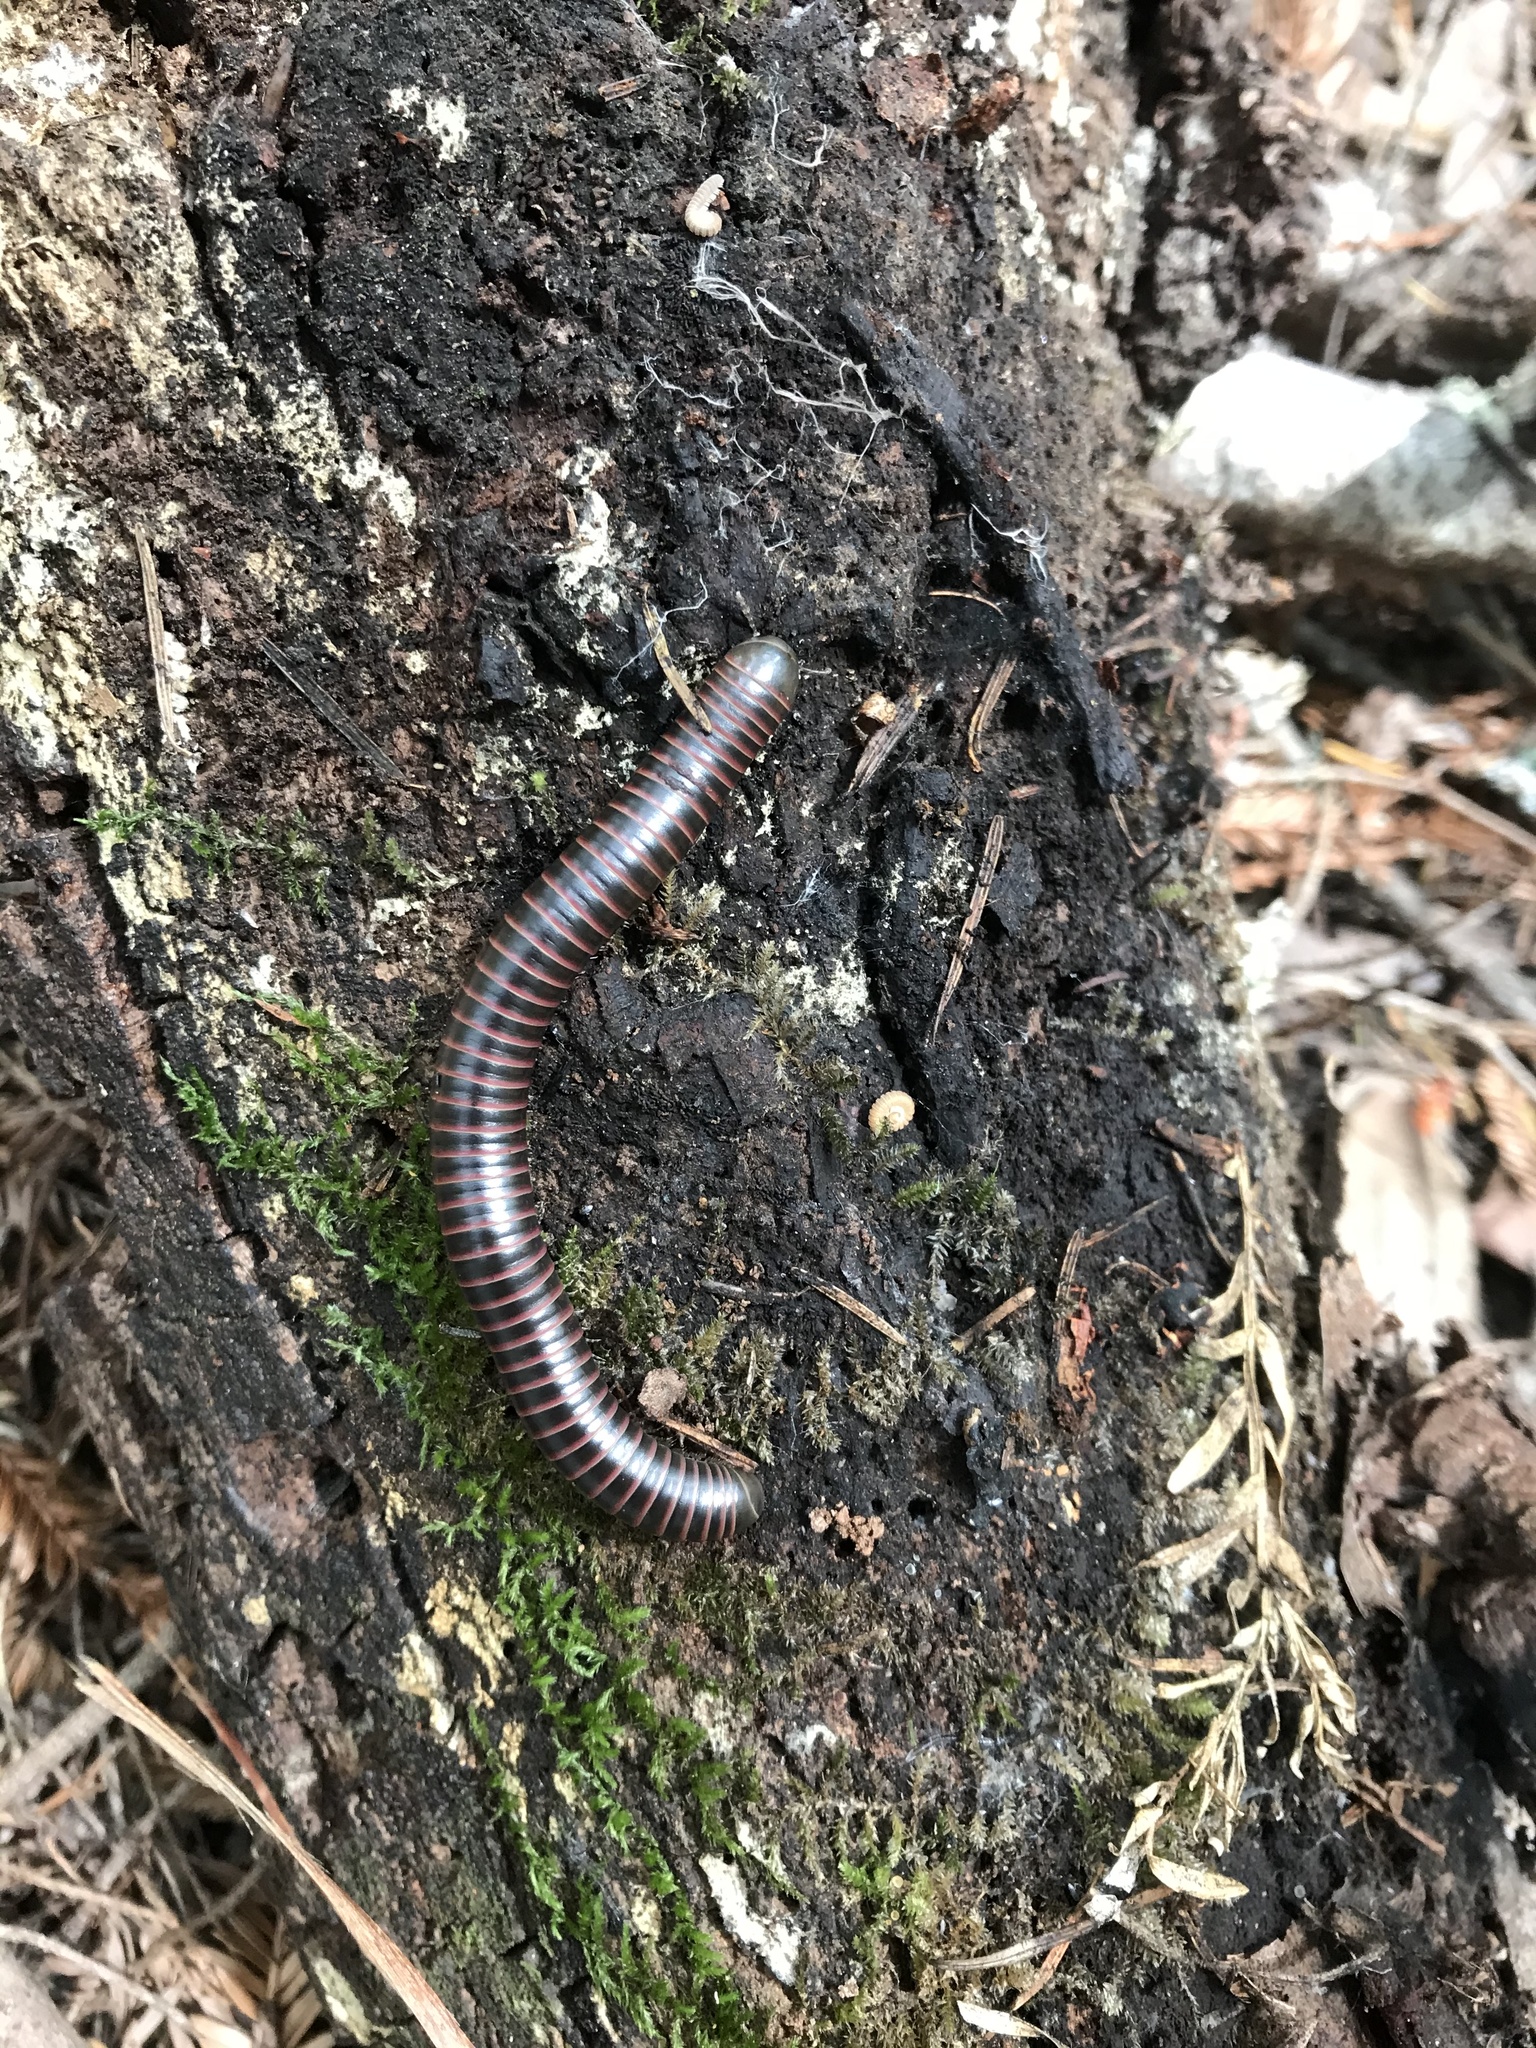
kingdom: Animalia
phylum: Arthropoda
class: Diplopoda
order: Spirobolida
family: Spirobolidae
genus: Tylobolus
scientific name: Tylobolus castaneus
